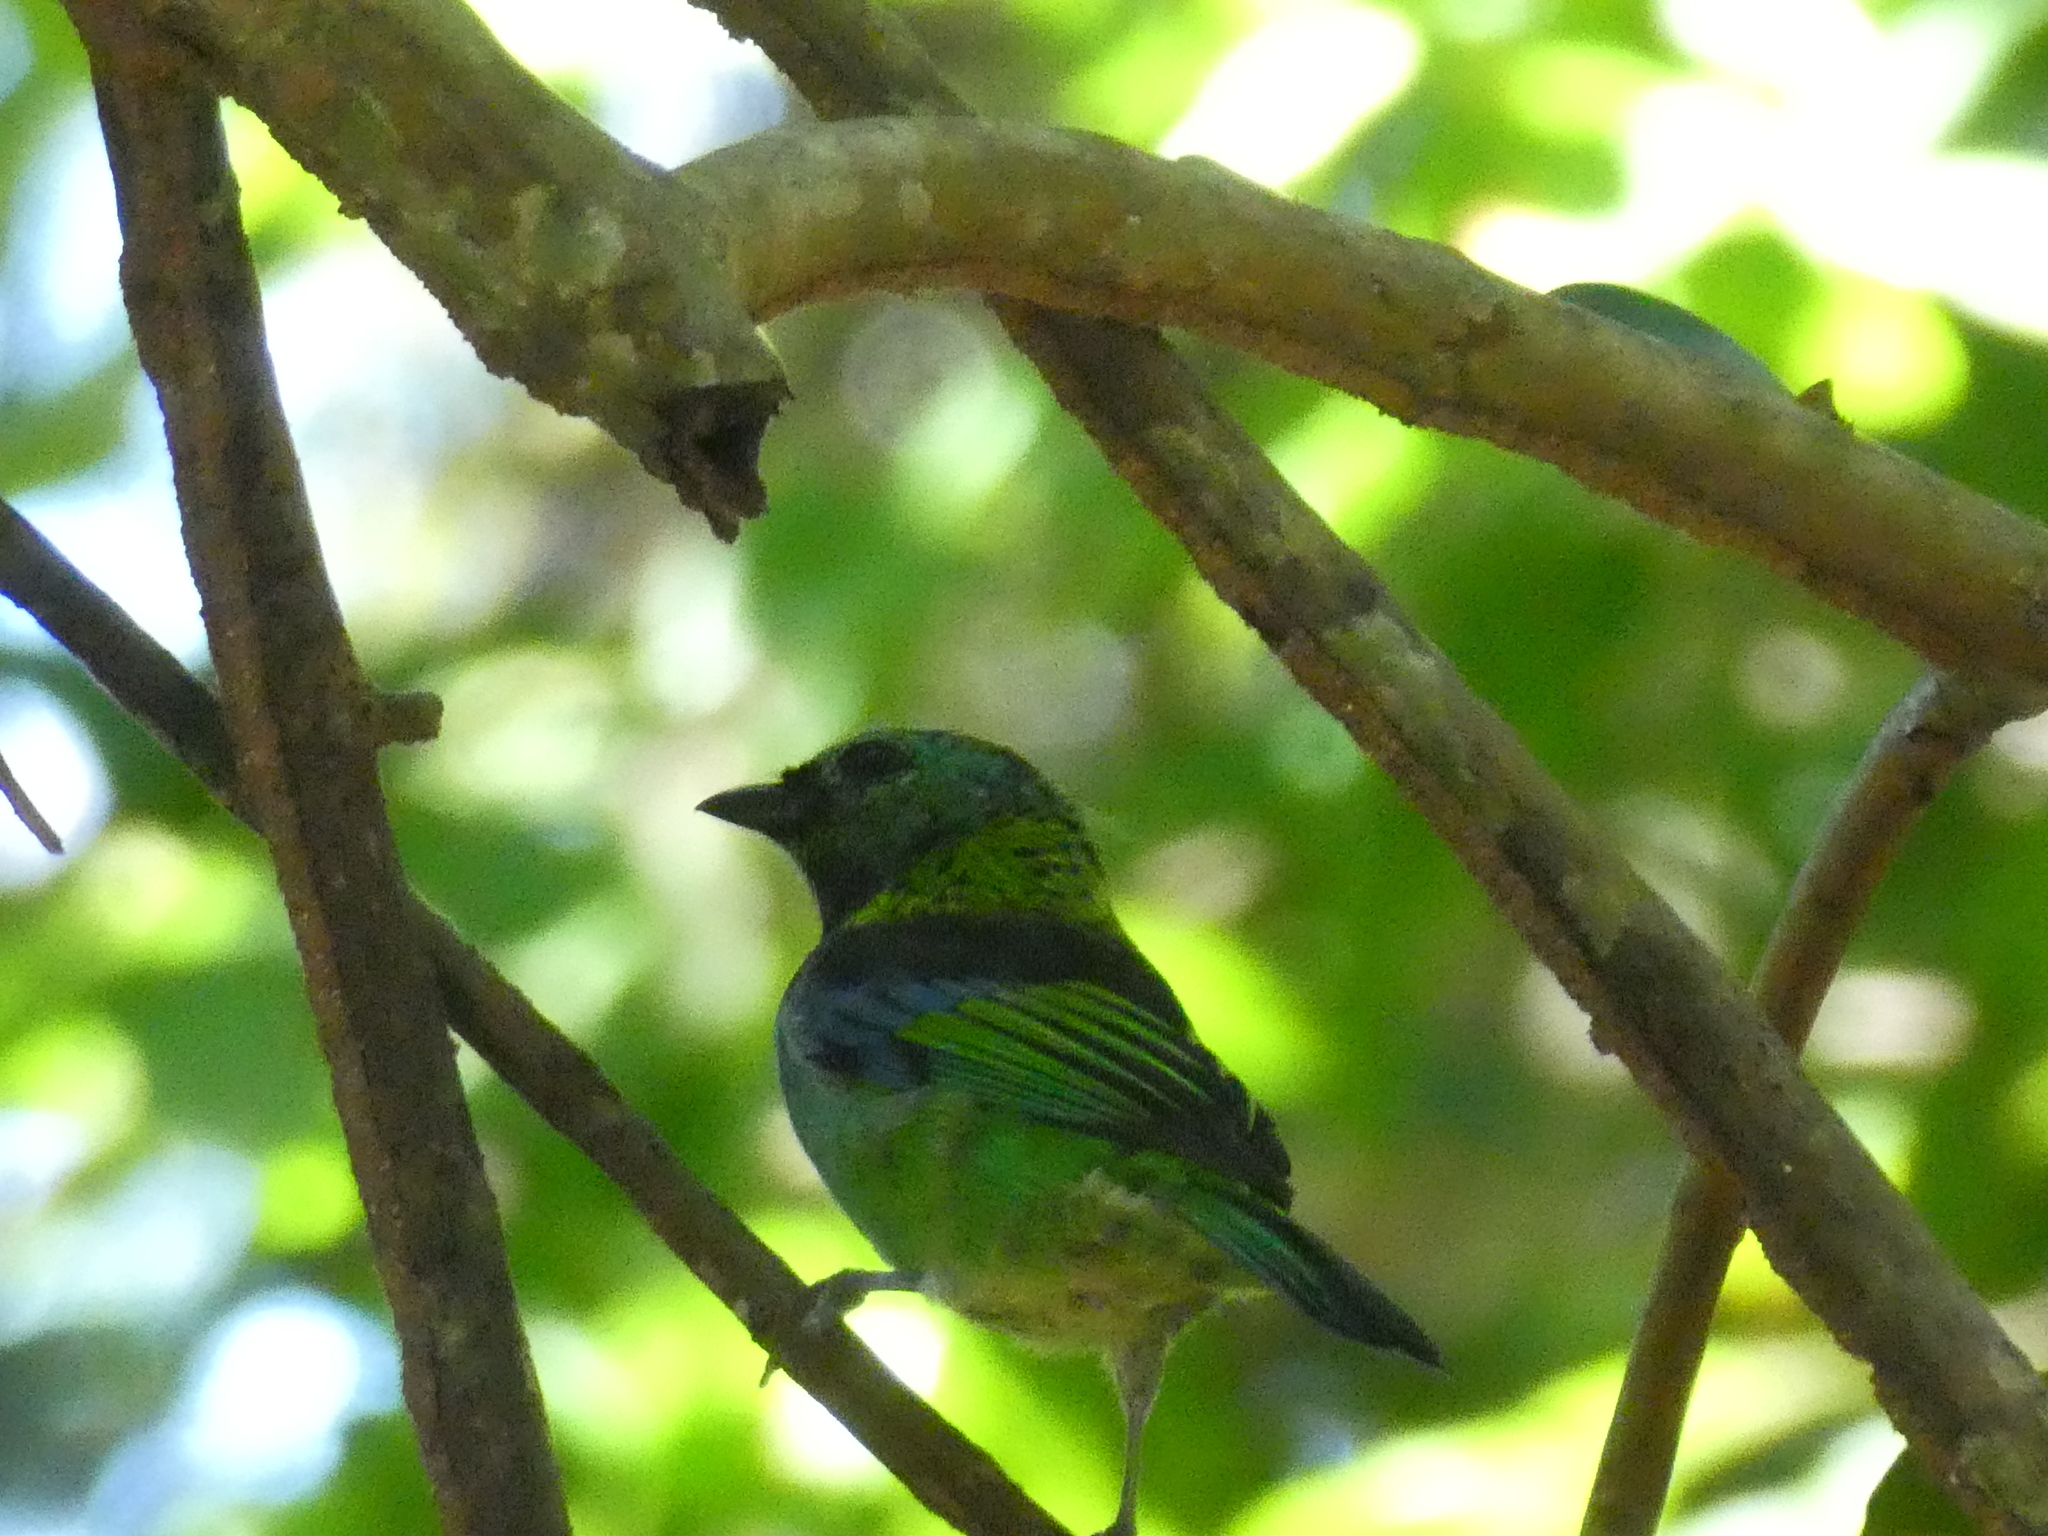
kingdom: Animalia
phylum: Chordata
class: Aves
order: Passeriformes
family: Thraupidae
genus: Tangara
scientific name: Tangara seledon
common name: Green-headed tanager
